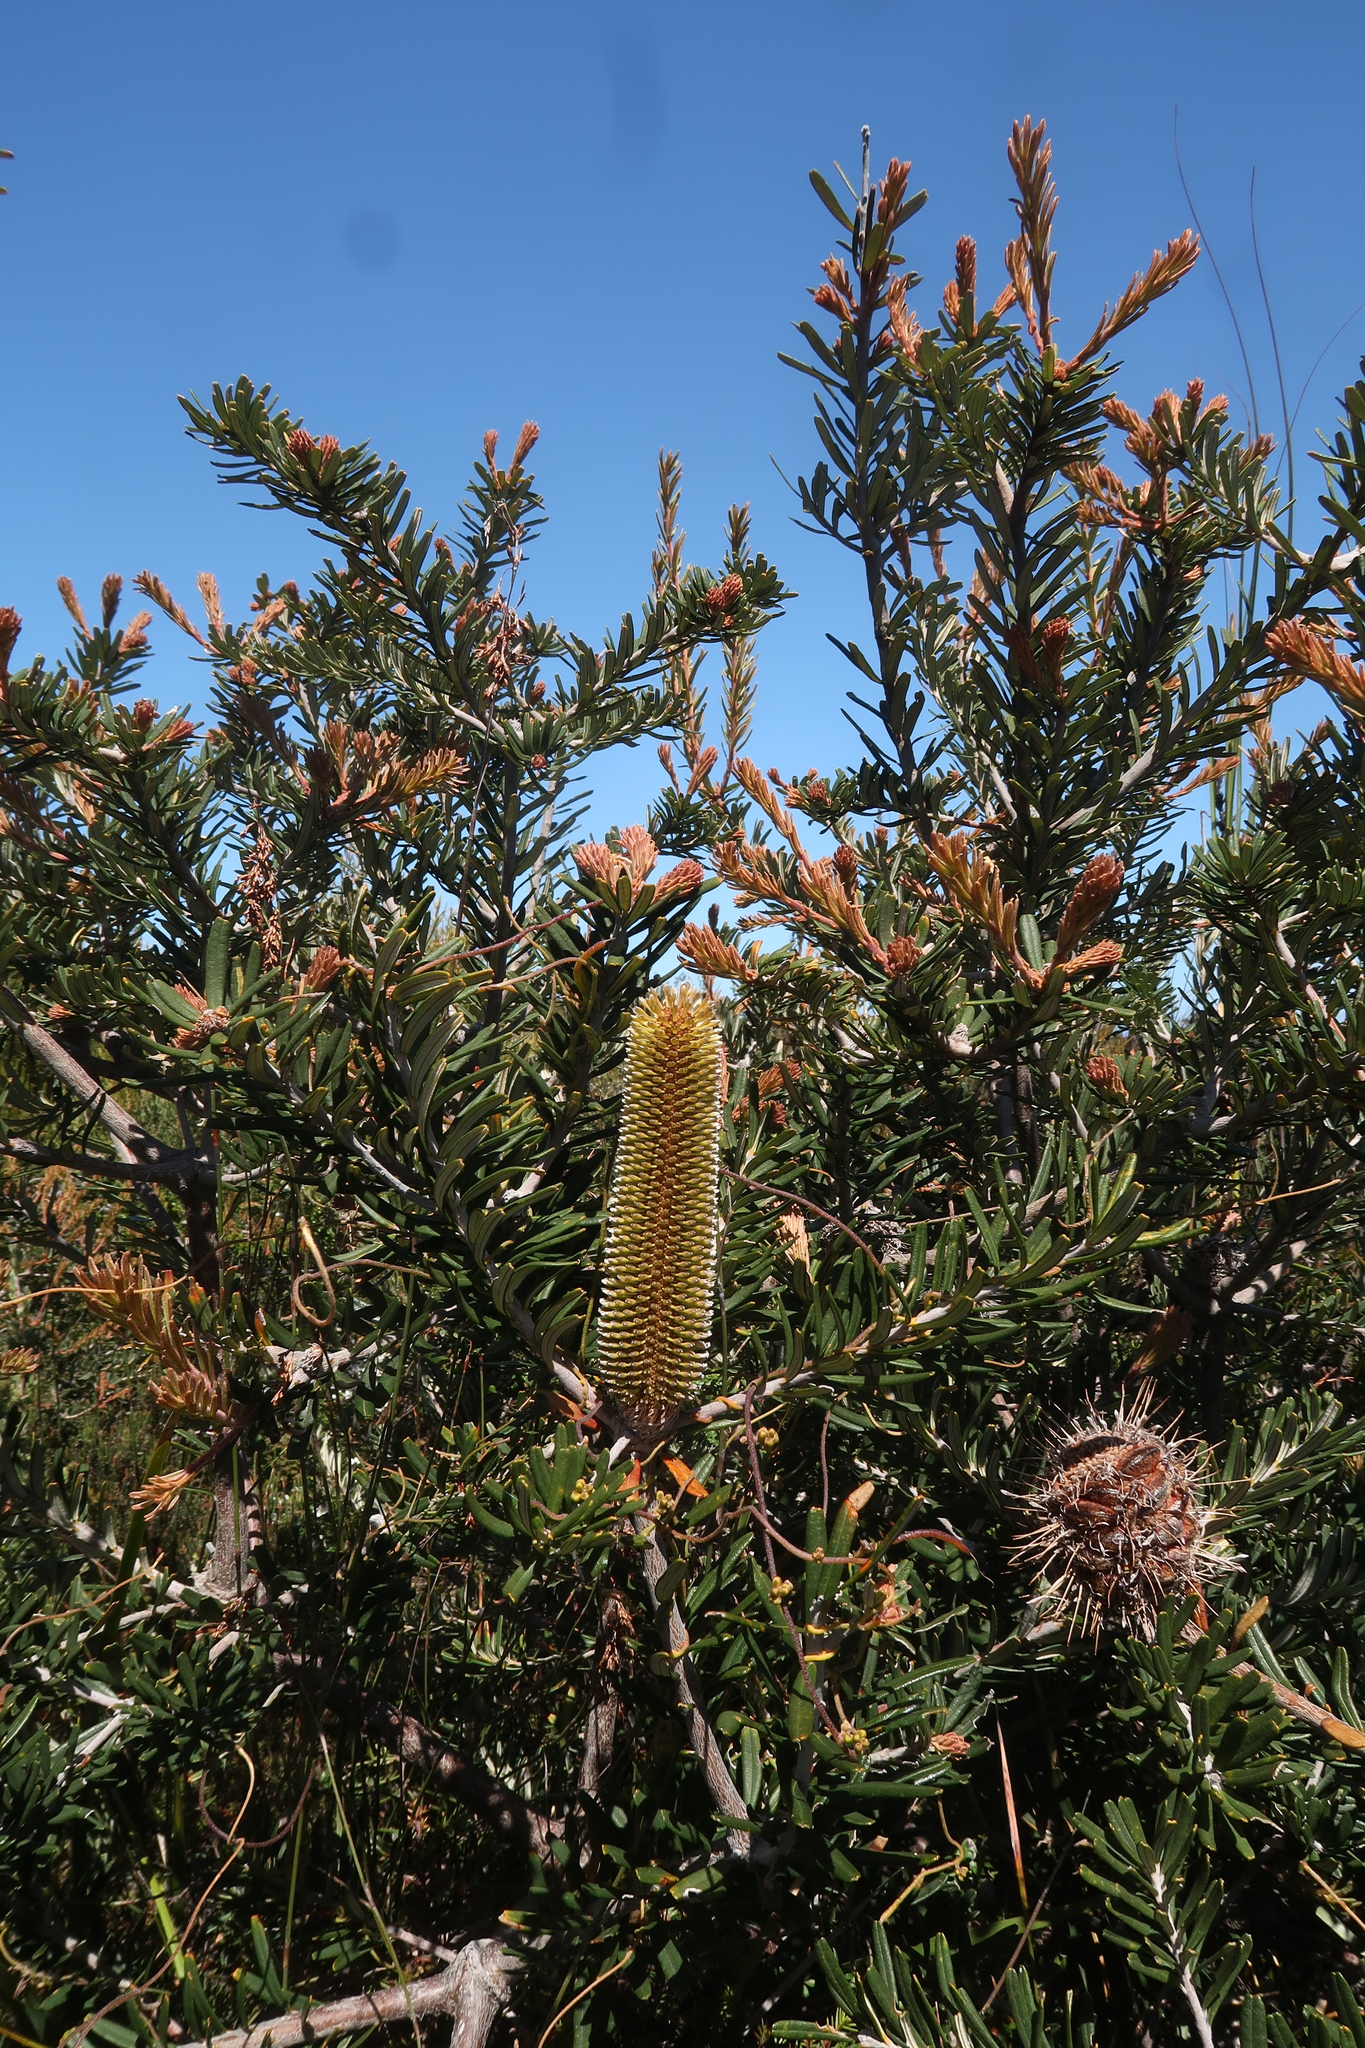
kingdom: Plantae
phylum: Tracheophyta
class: Magnoliopsida
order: Proteales
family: Proteaceae
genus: Banksia
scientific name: Banksia marginata
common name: Silver banksia
